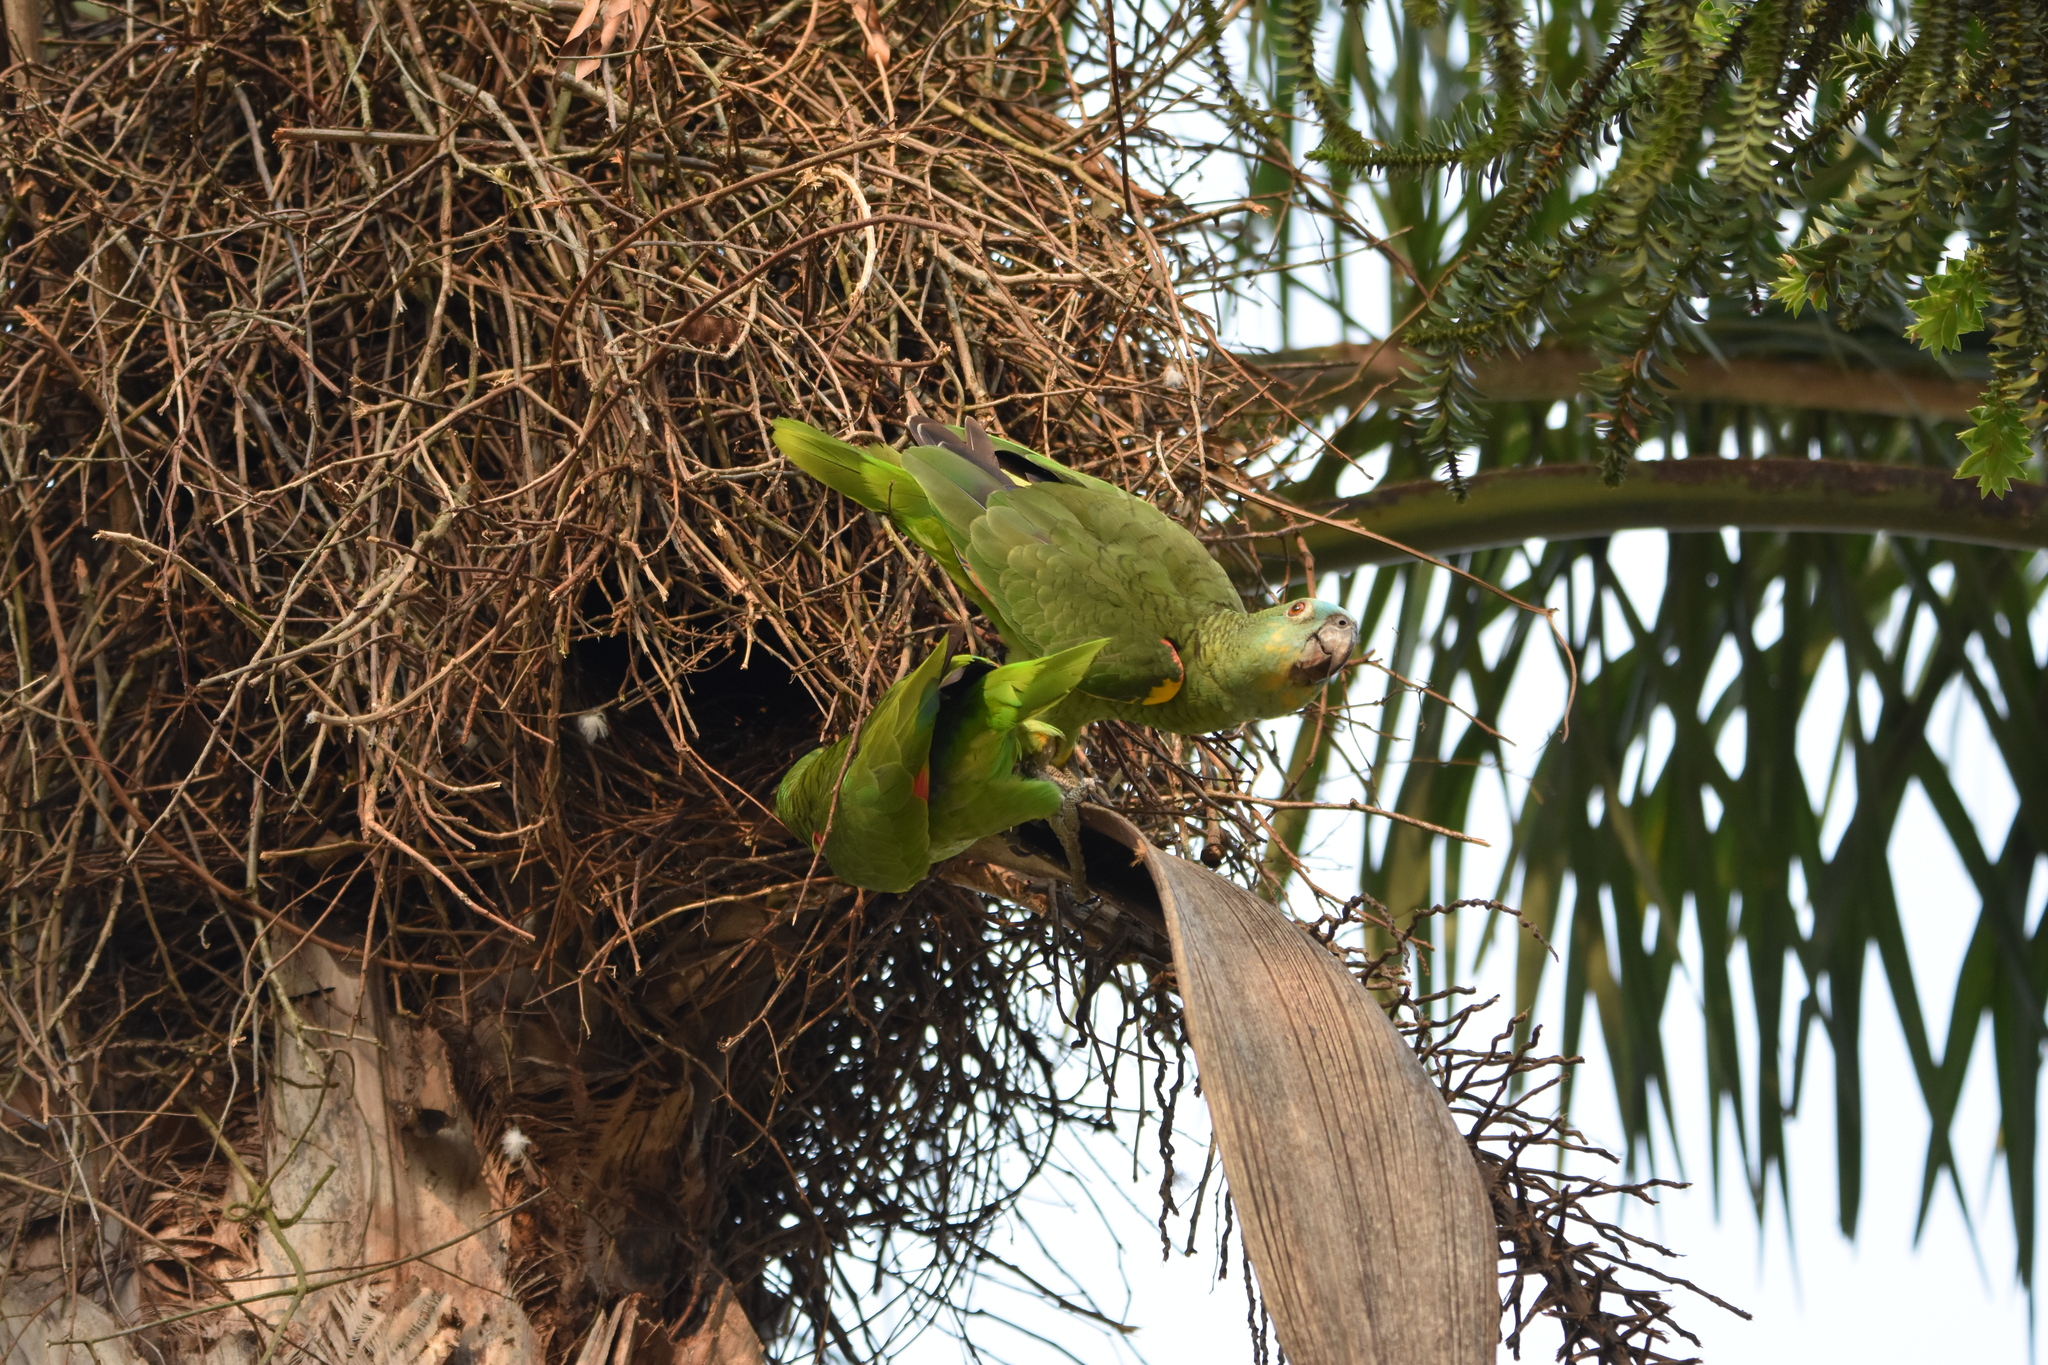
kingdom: Animalia
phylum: Chordata
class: Aves
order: Psittaciformes
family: Psittacidae
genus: Amazona
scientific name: Amazona aestiva
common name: Turquoise-fronted amazon
